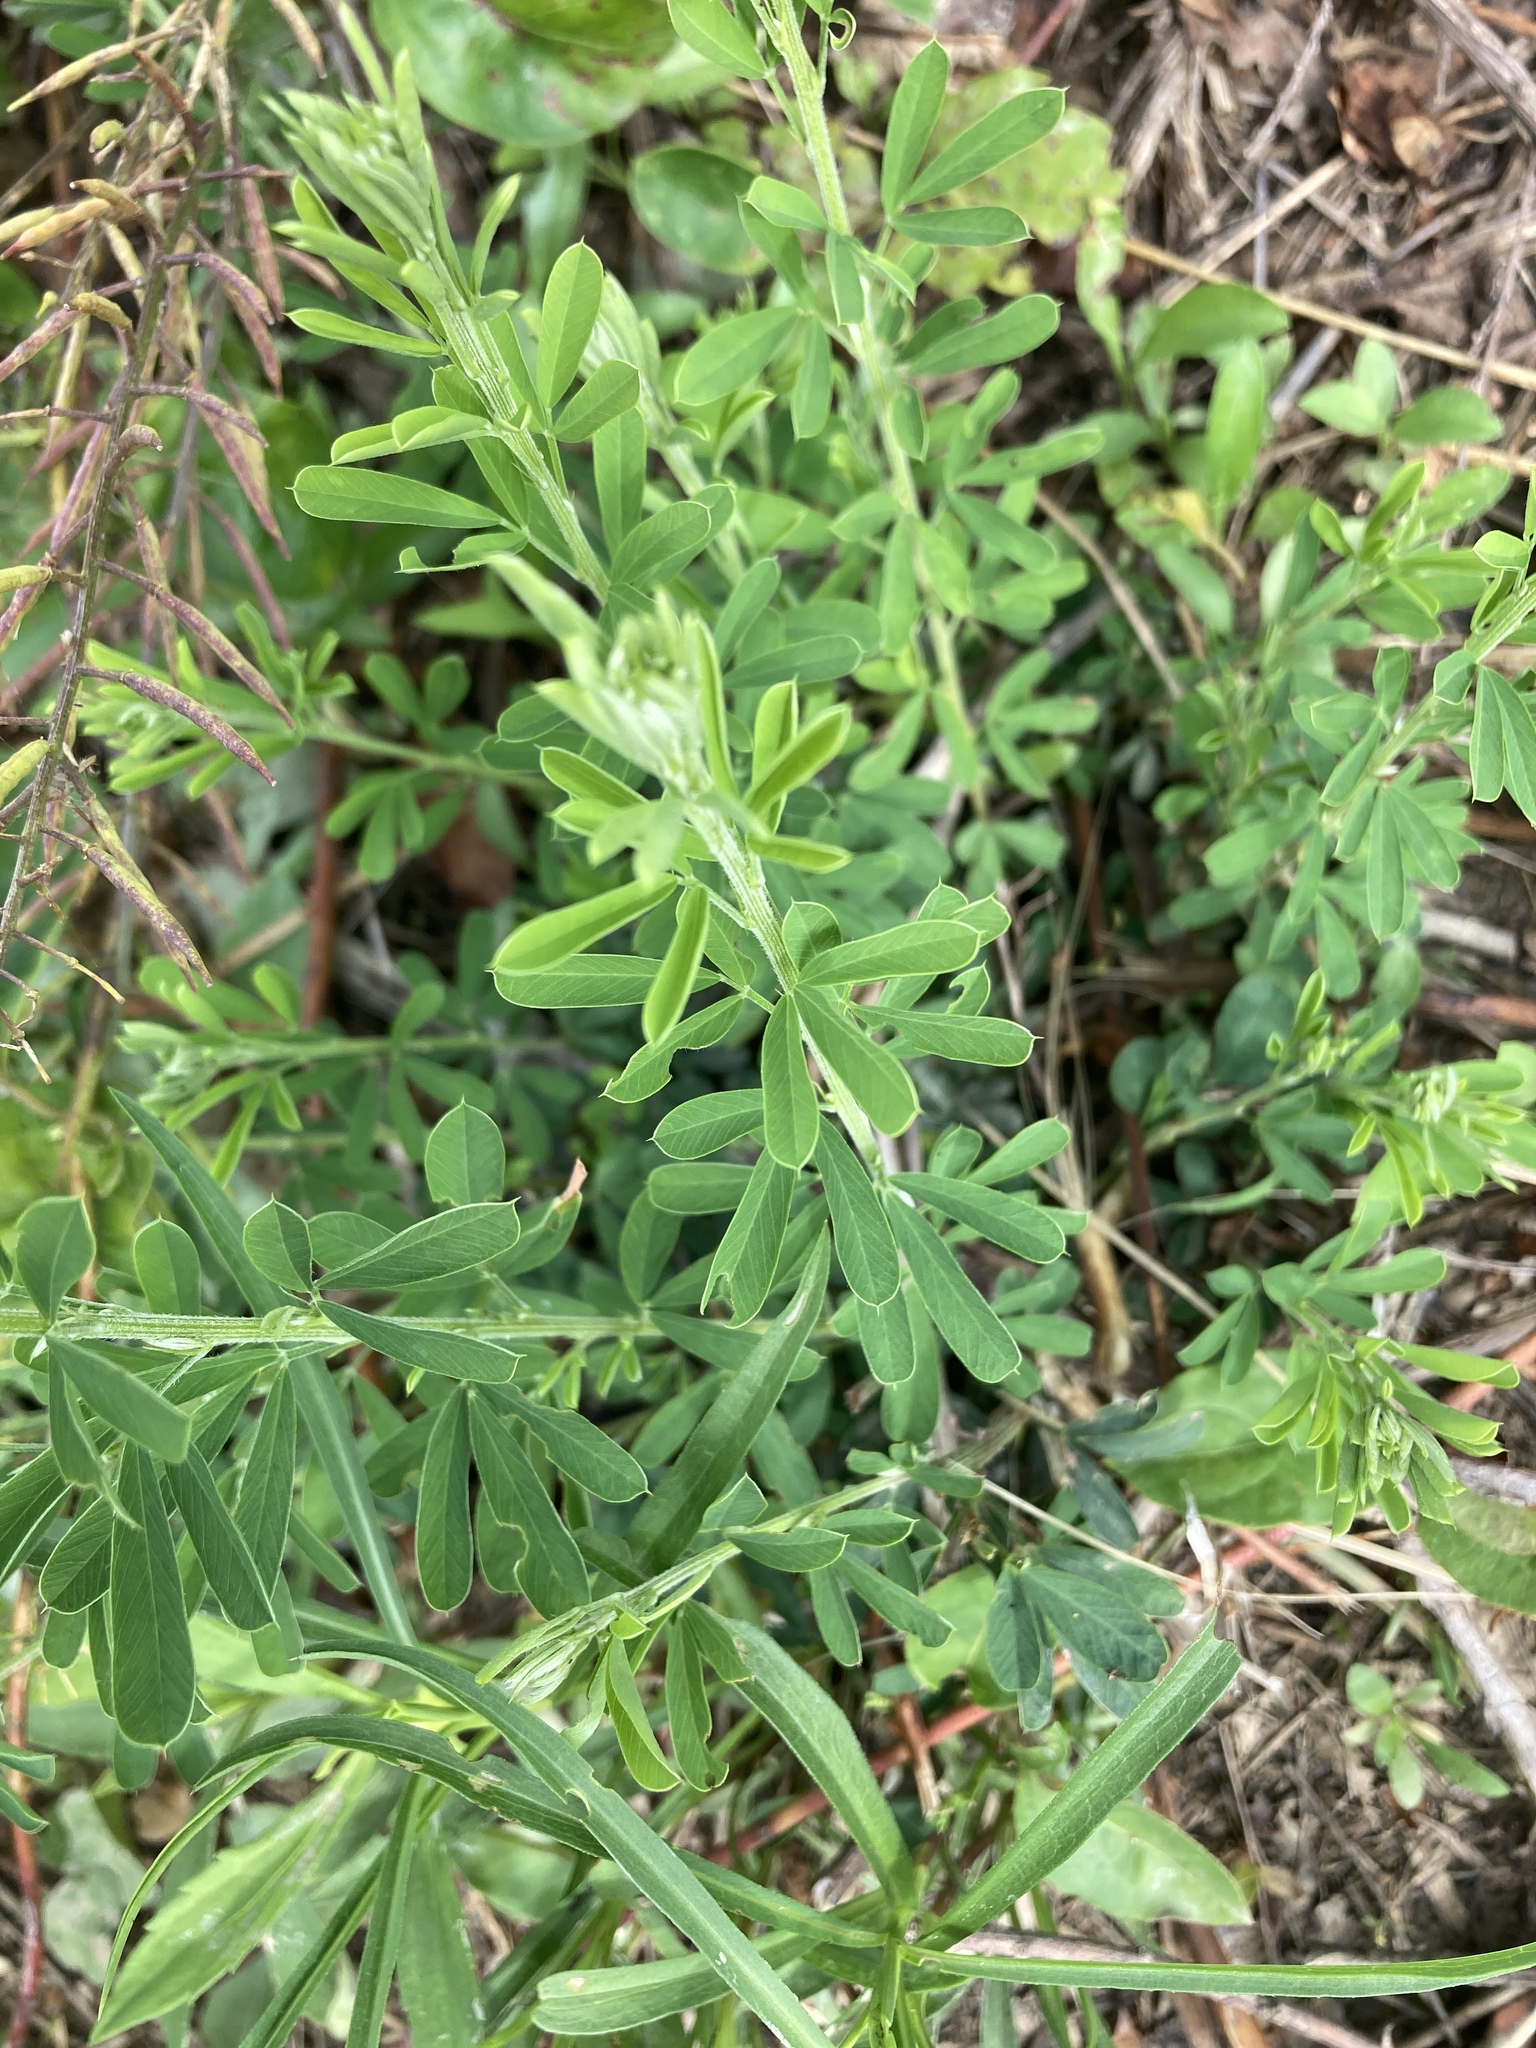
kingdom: Plantae
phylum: Tracheophyta
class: Magnoliopsida
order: Fabales
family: Fabaceae
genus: Lespedeza
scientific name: Lespedeza cuneata
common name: Chinese bush-clover
